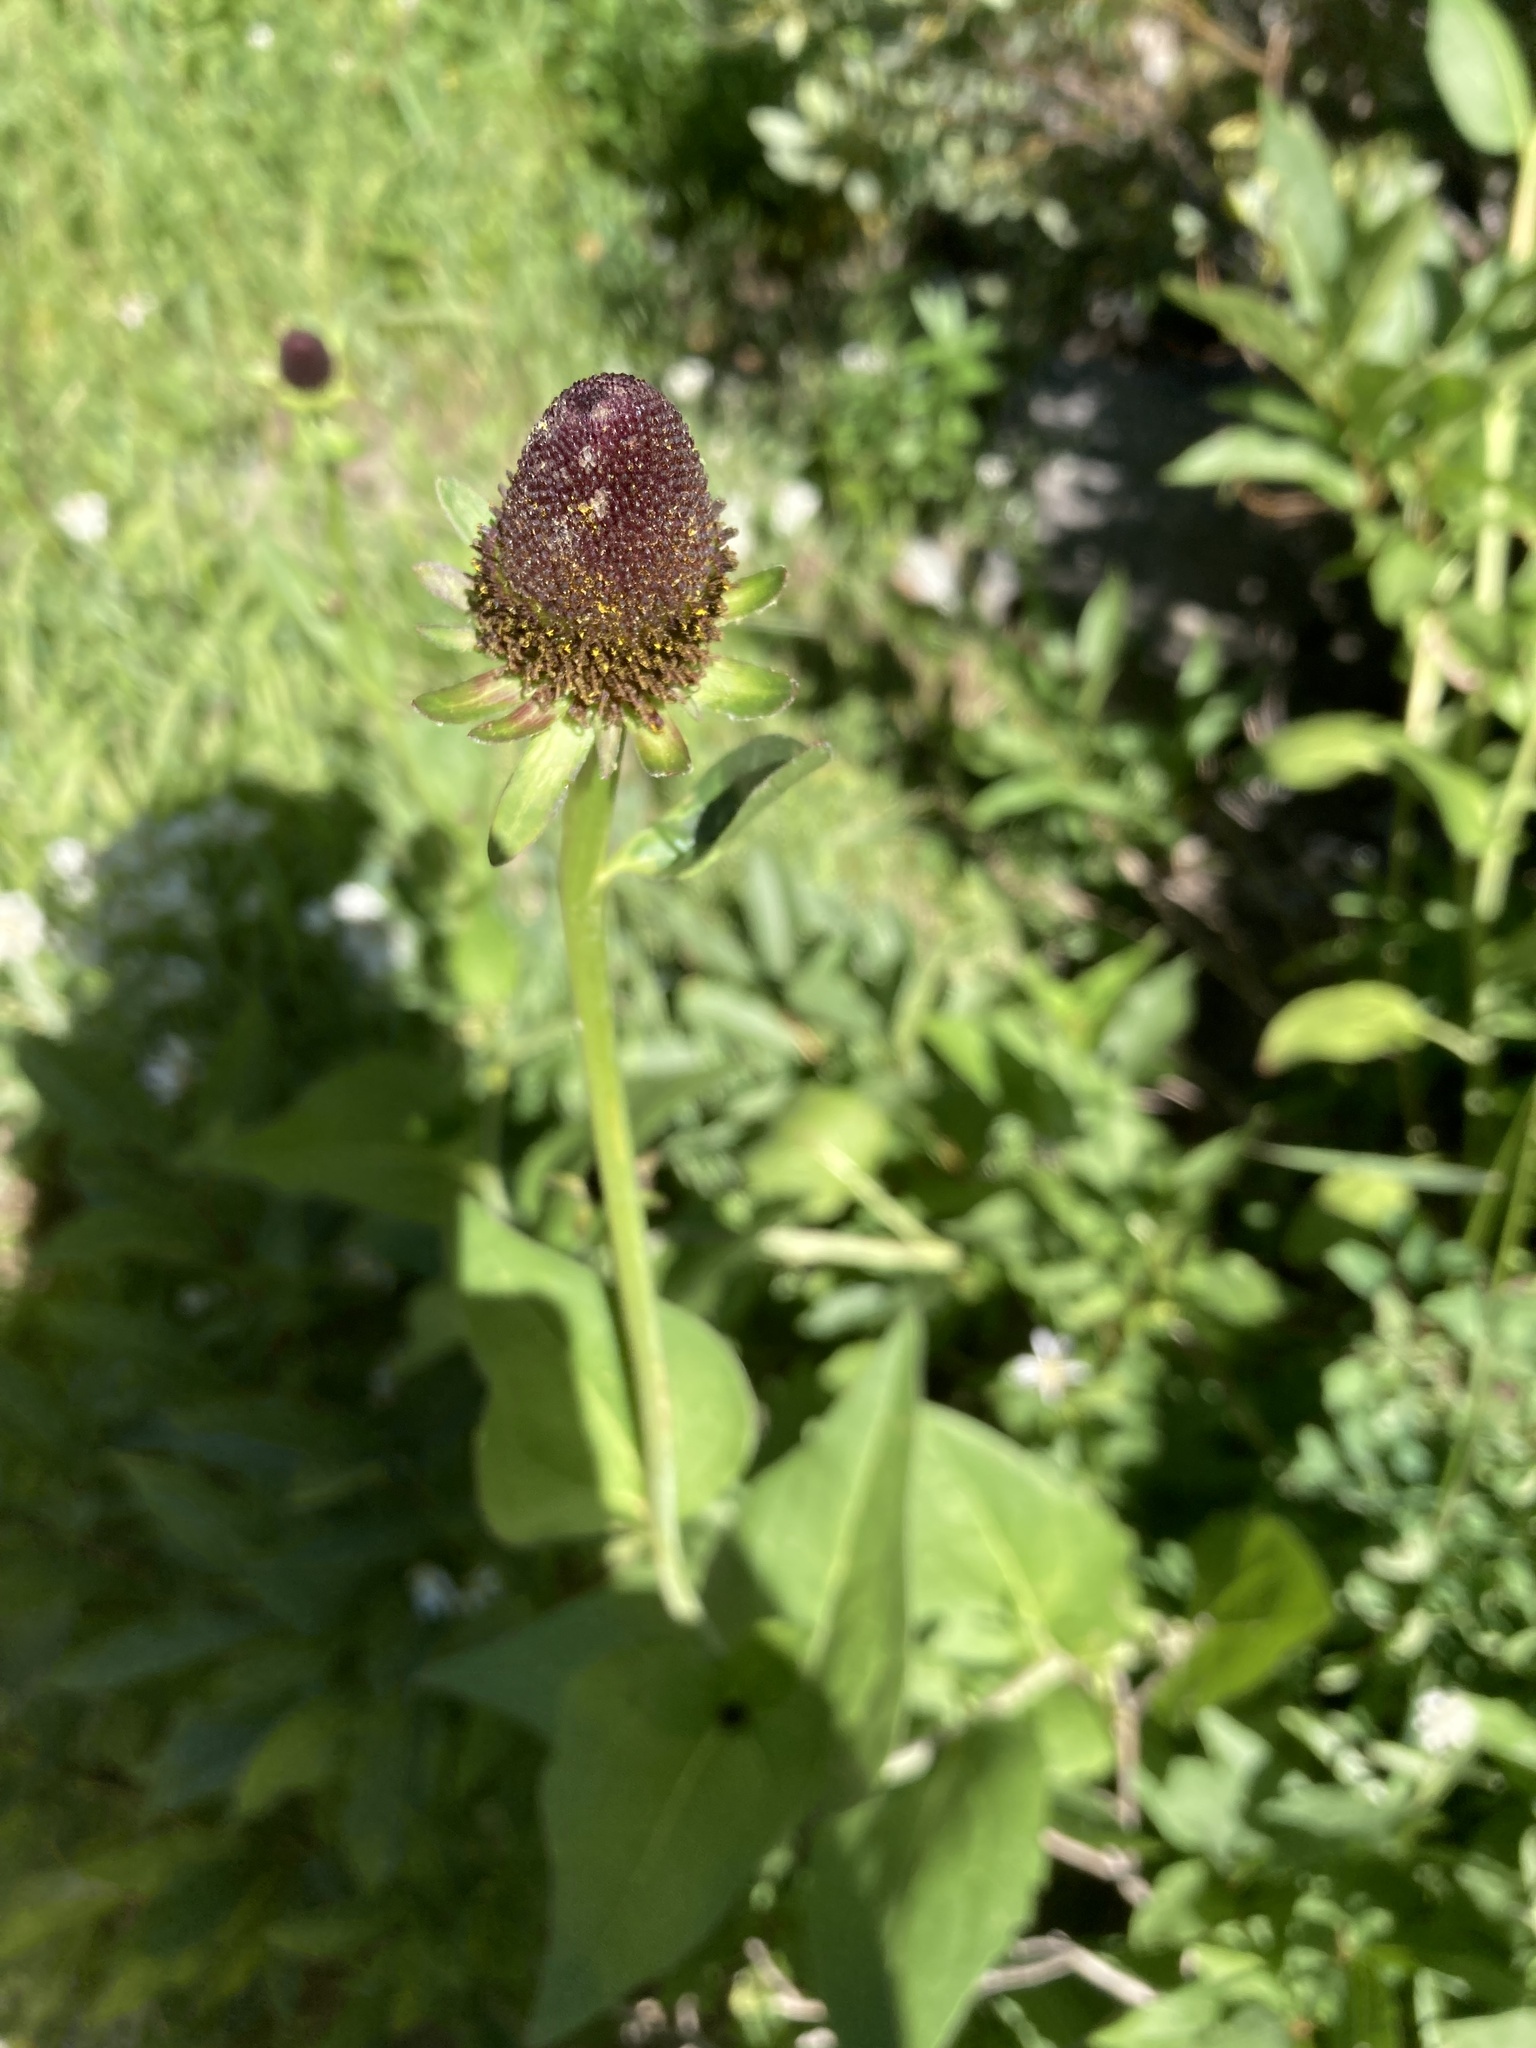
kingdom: Plantae
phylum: Tracheophyta
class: Magnoliopsida
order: Asterales
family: Asteraceae
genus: Rudbeckia
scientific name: Rudbeckia occidentalis
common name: Western coneflower
